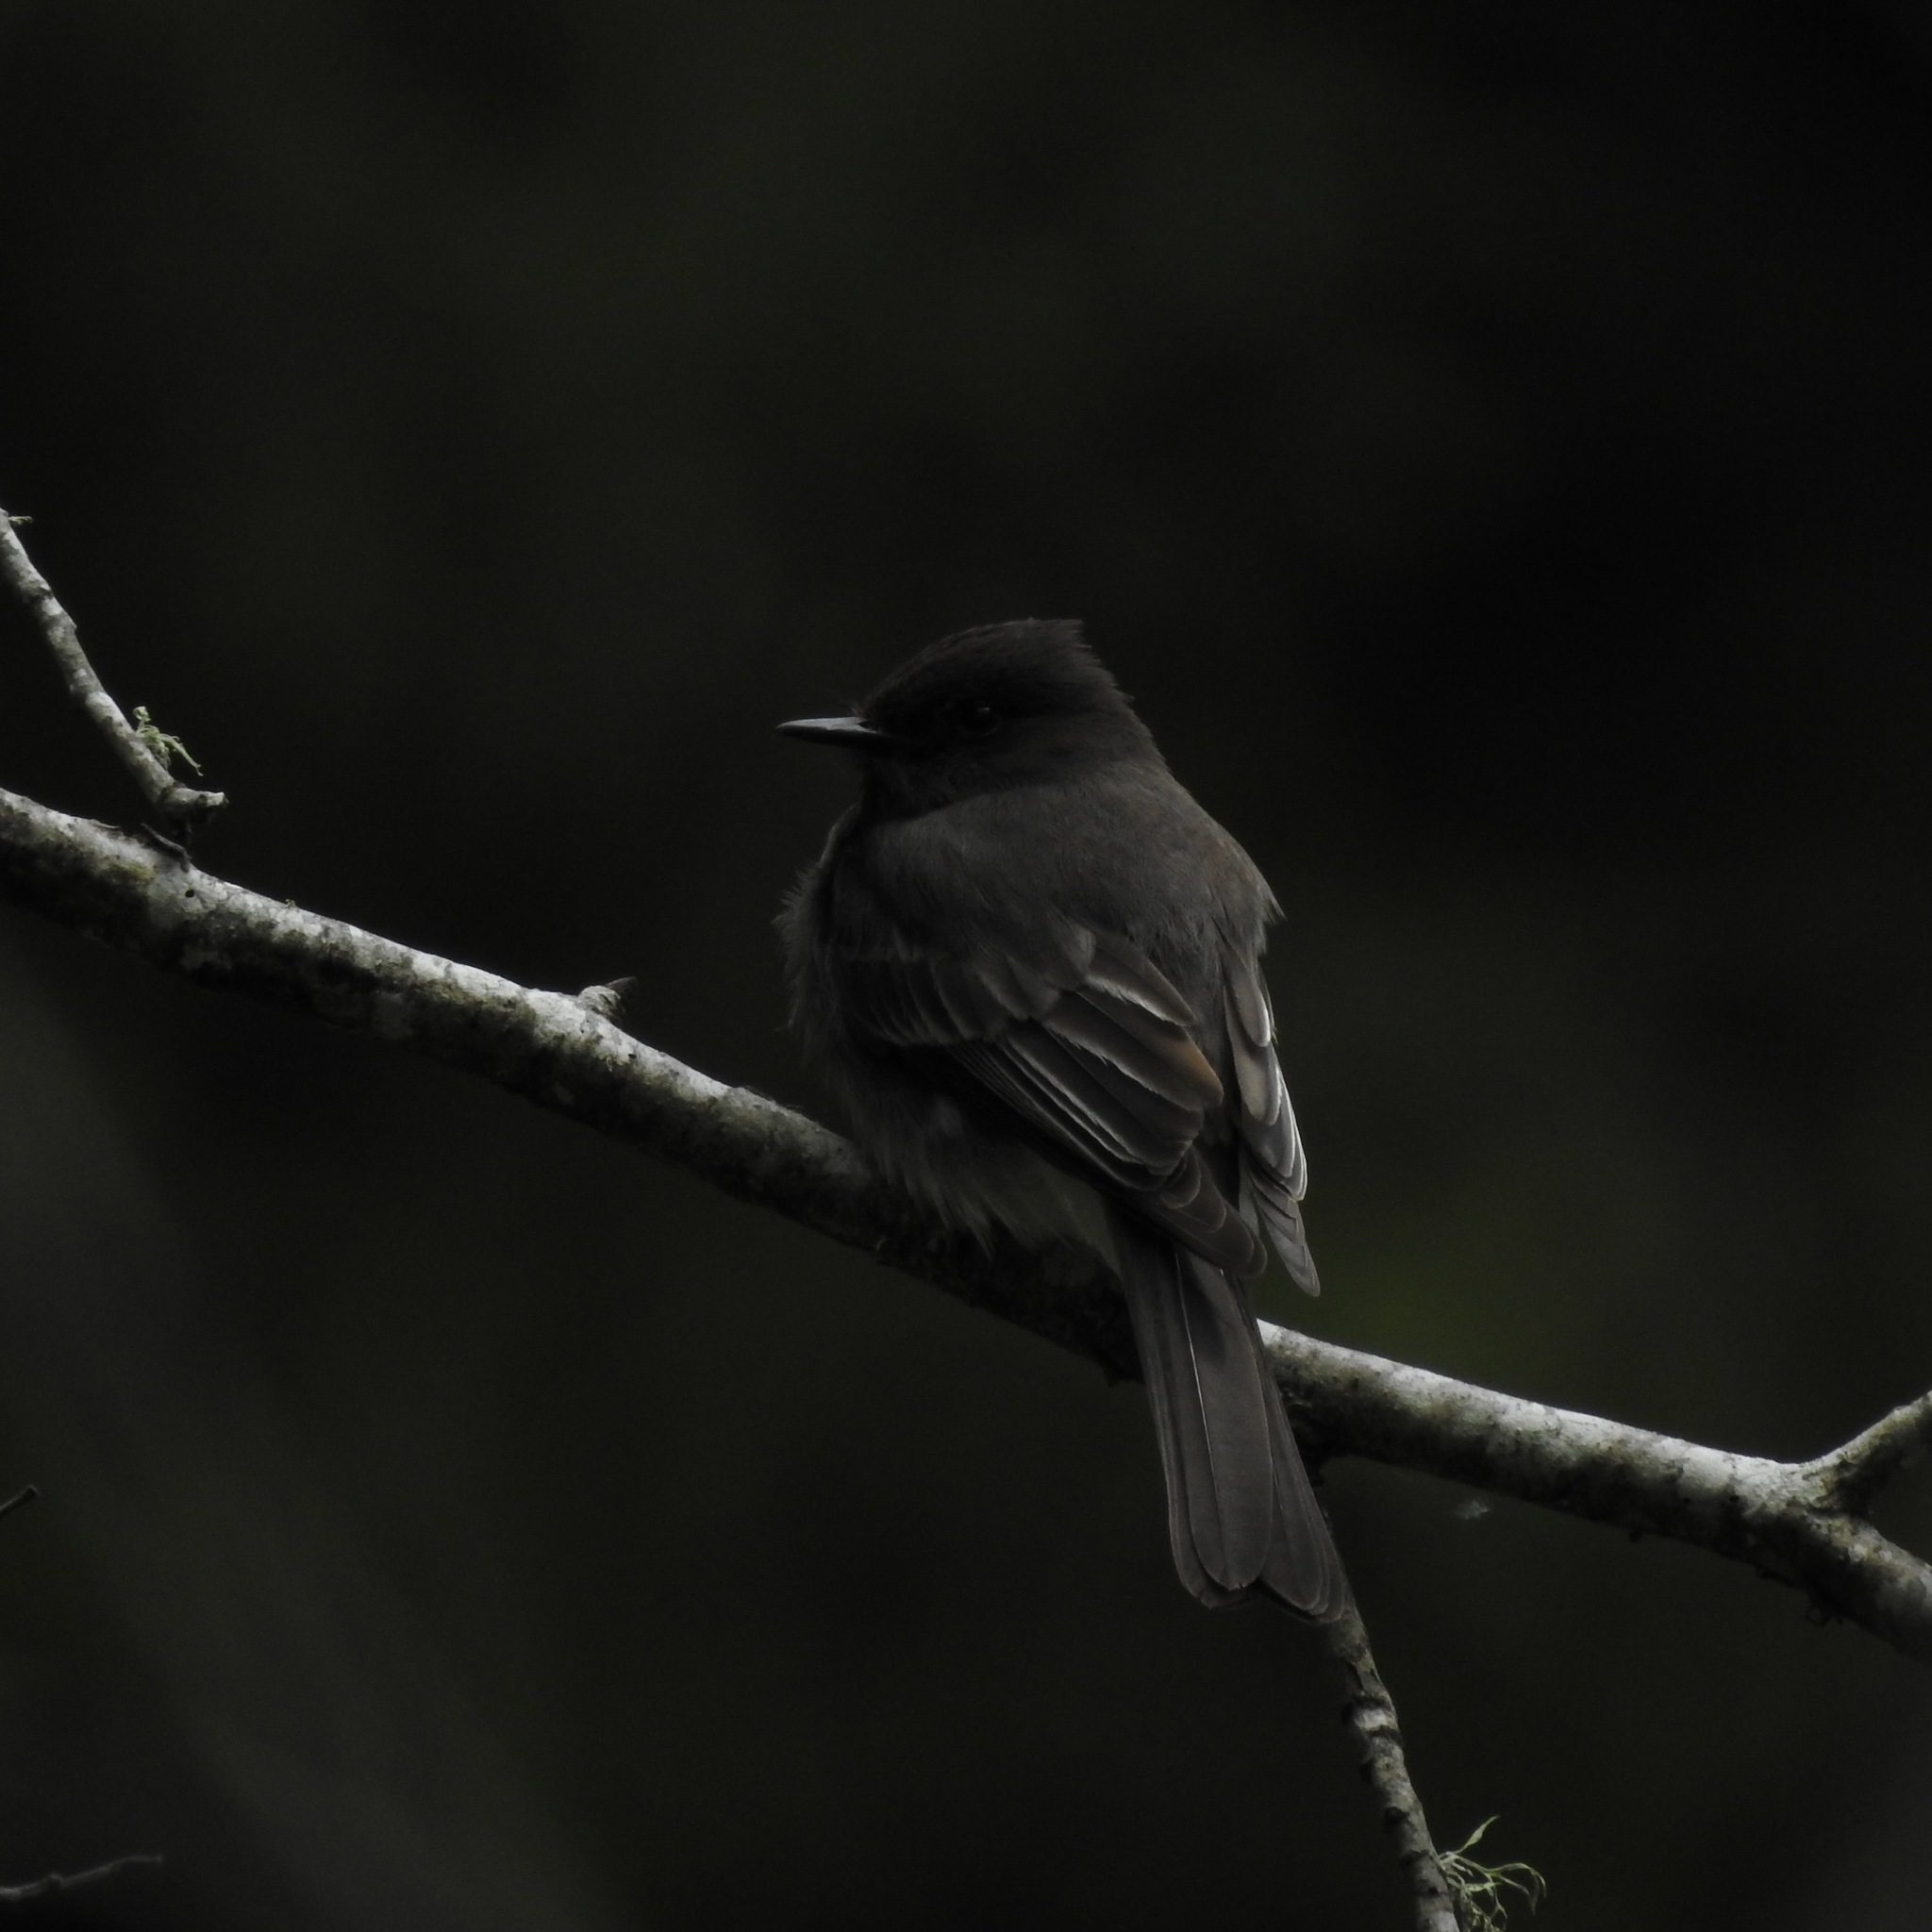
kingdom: Animalia
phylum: Chordata
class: Aves
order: Passeriformes
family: Tyrannidae
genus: Sayornis
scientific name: Sayornis nigricans
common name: Black phoebe
